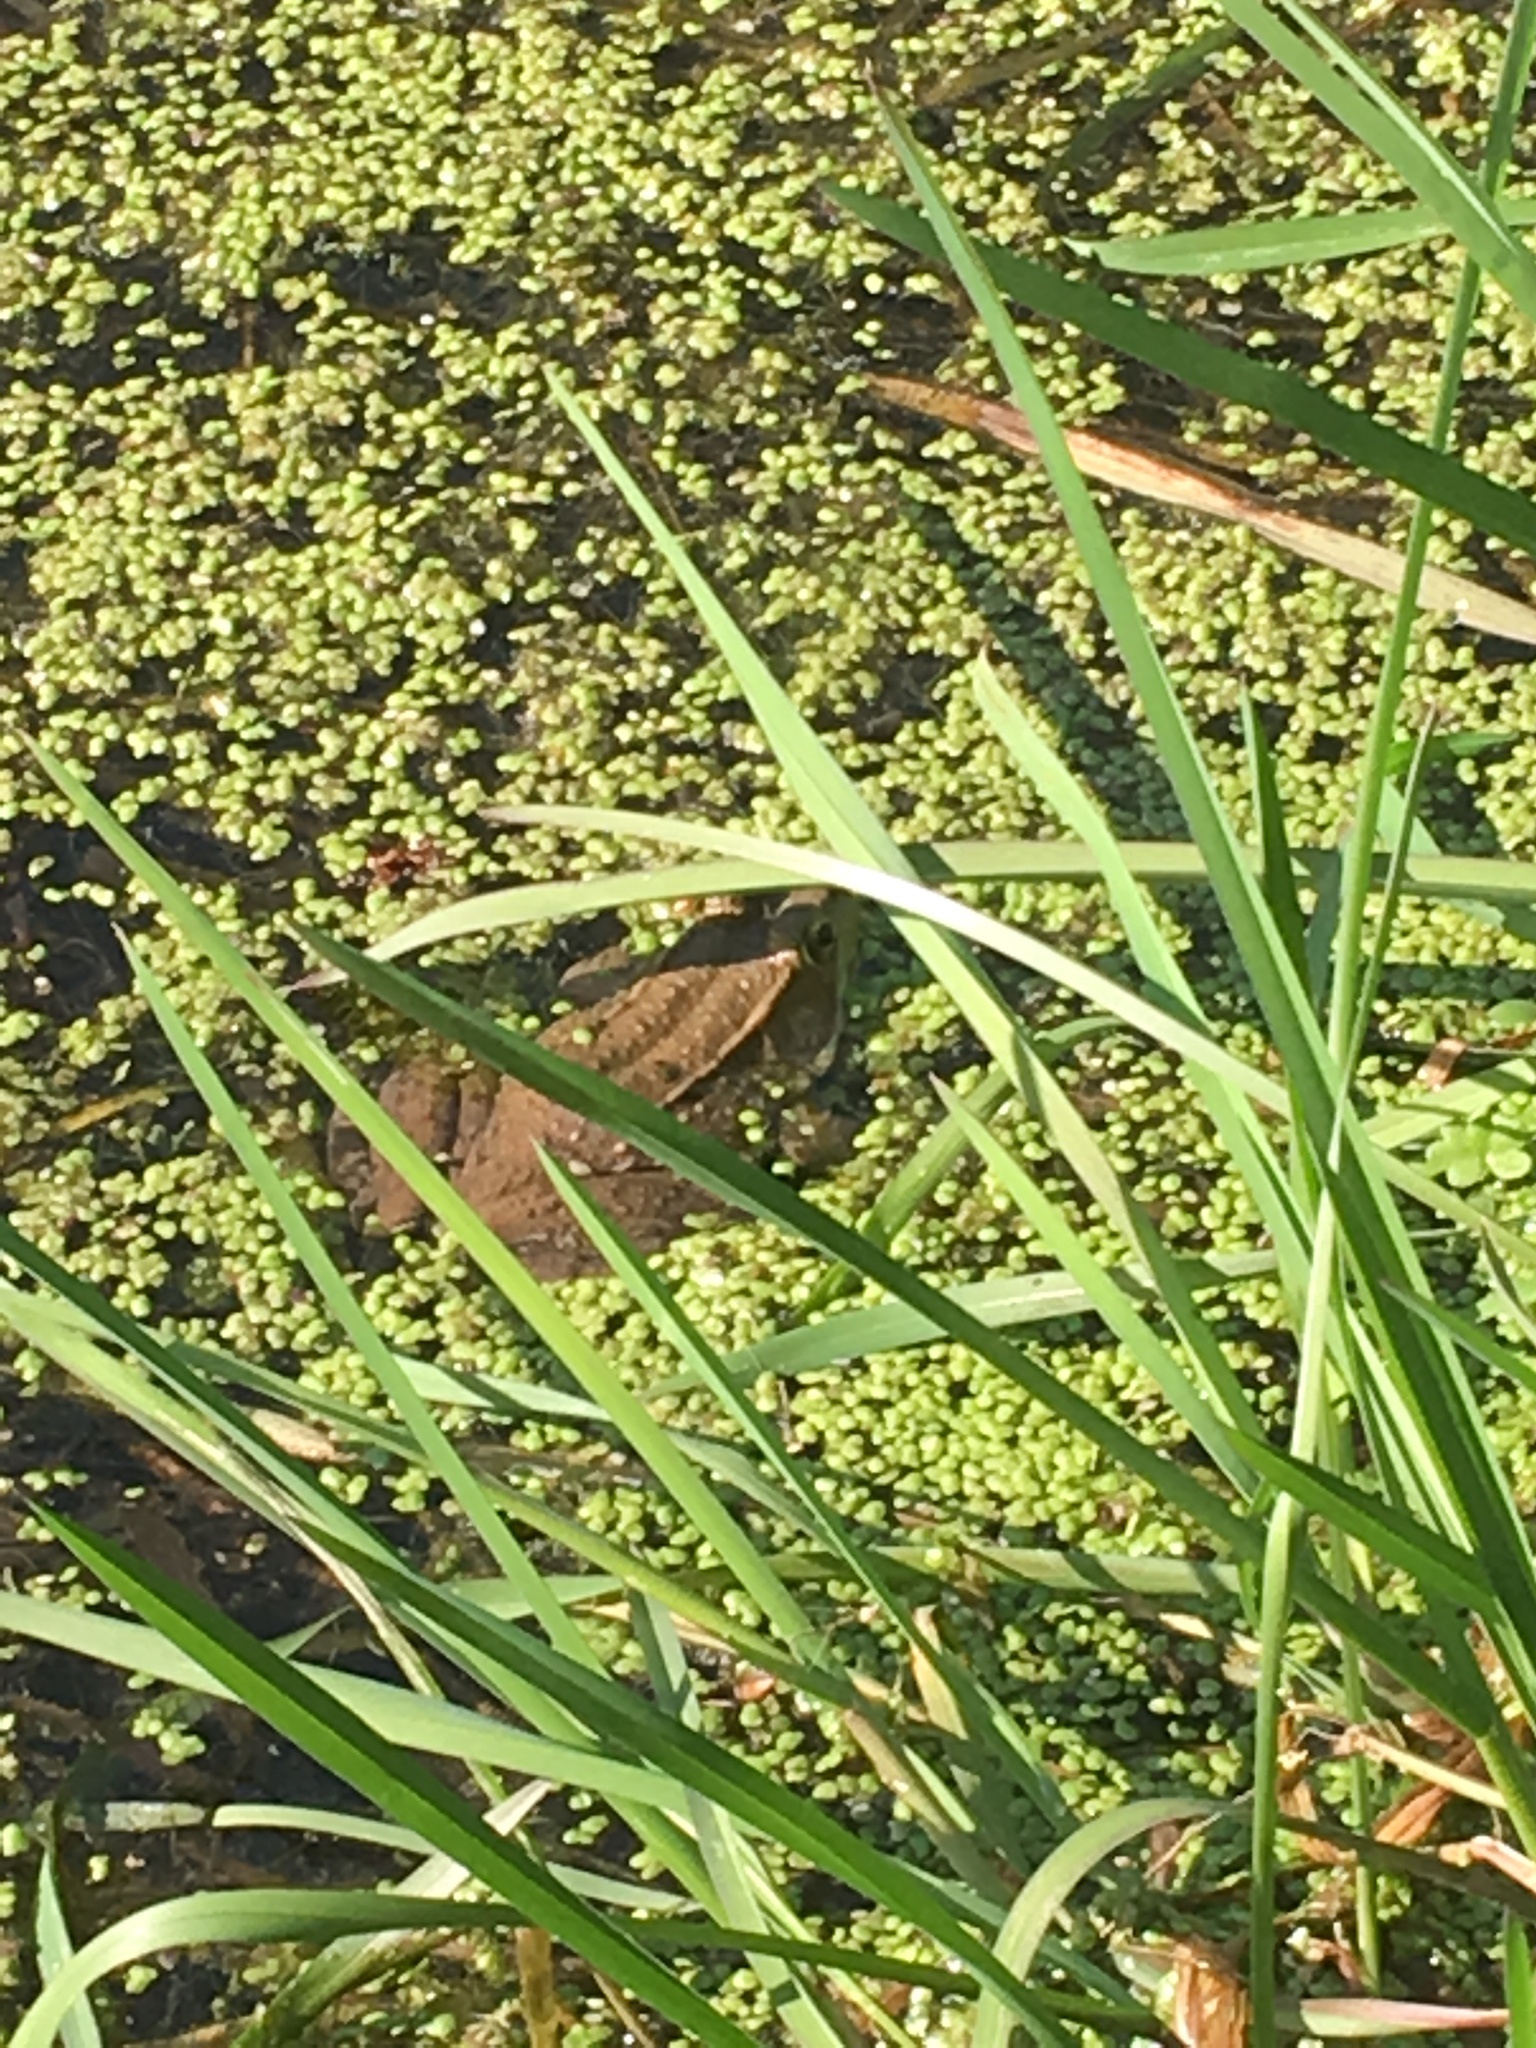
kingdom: Animalia
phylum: Chordata
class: Amphibia
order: Anura
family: Ranidae
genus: Lithobates
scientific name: Lithobates clamitans
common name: Green frog
